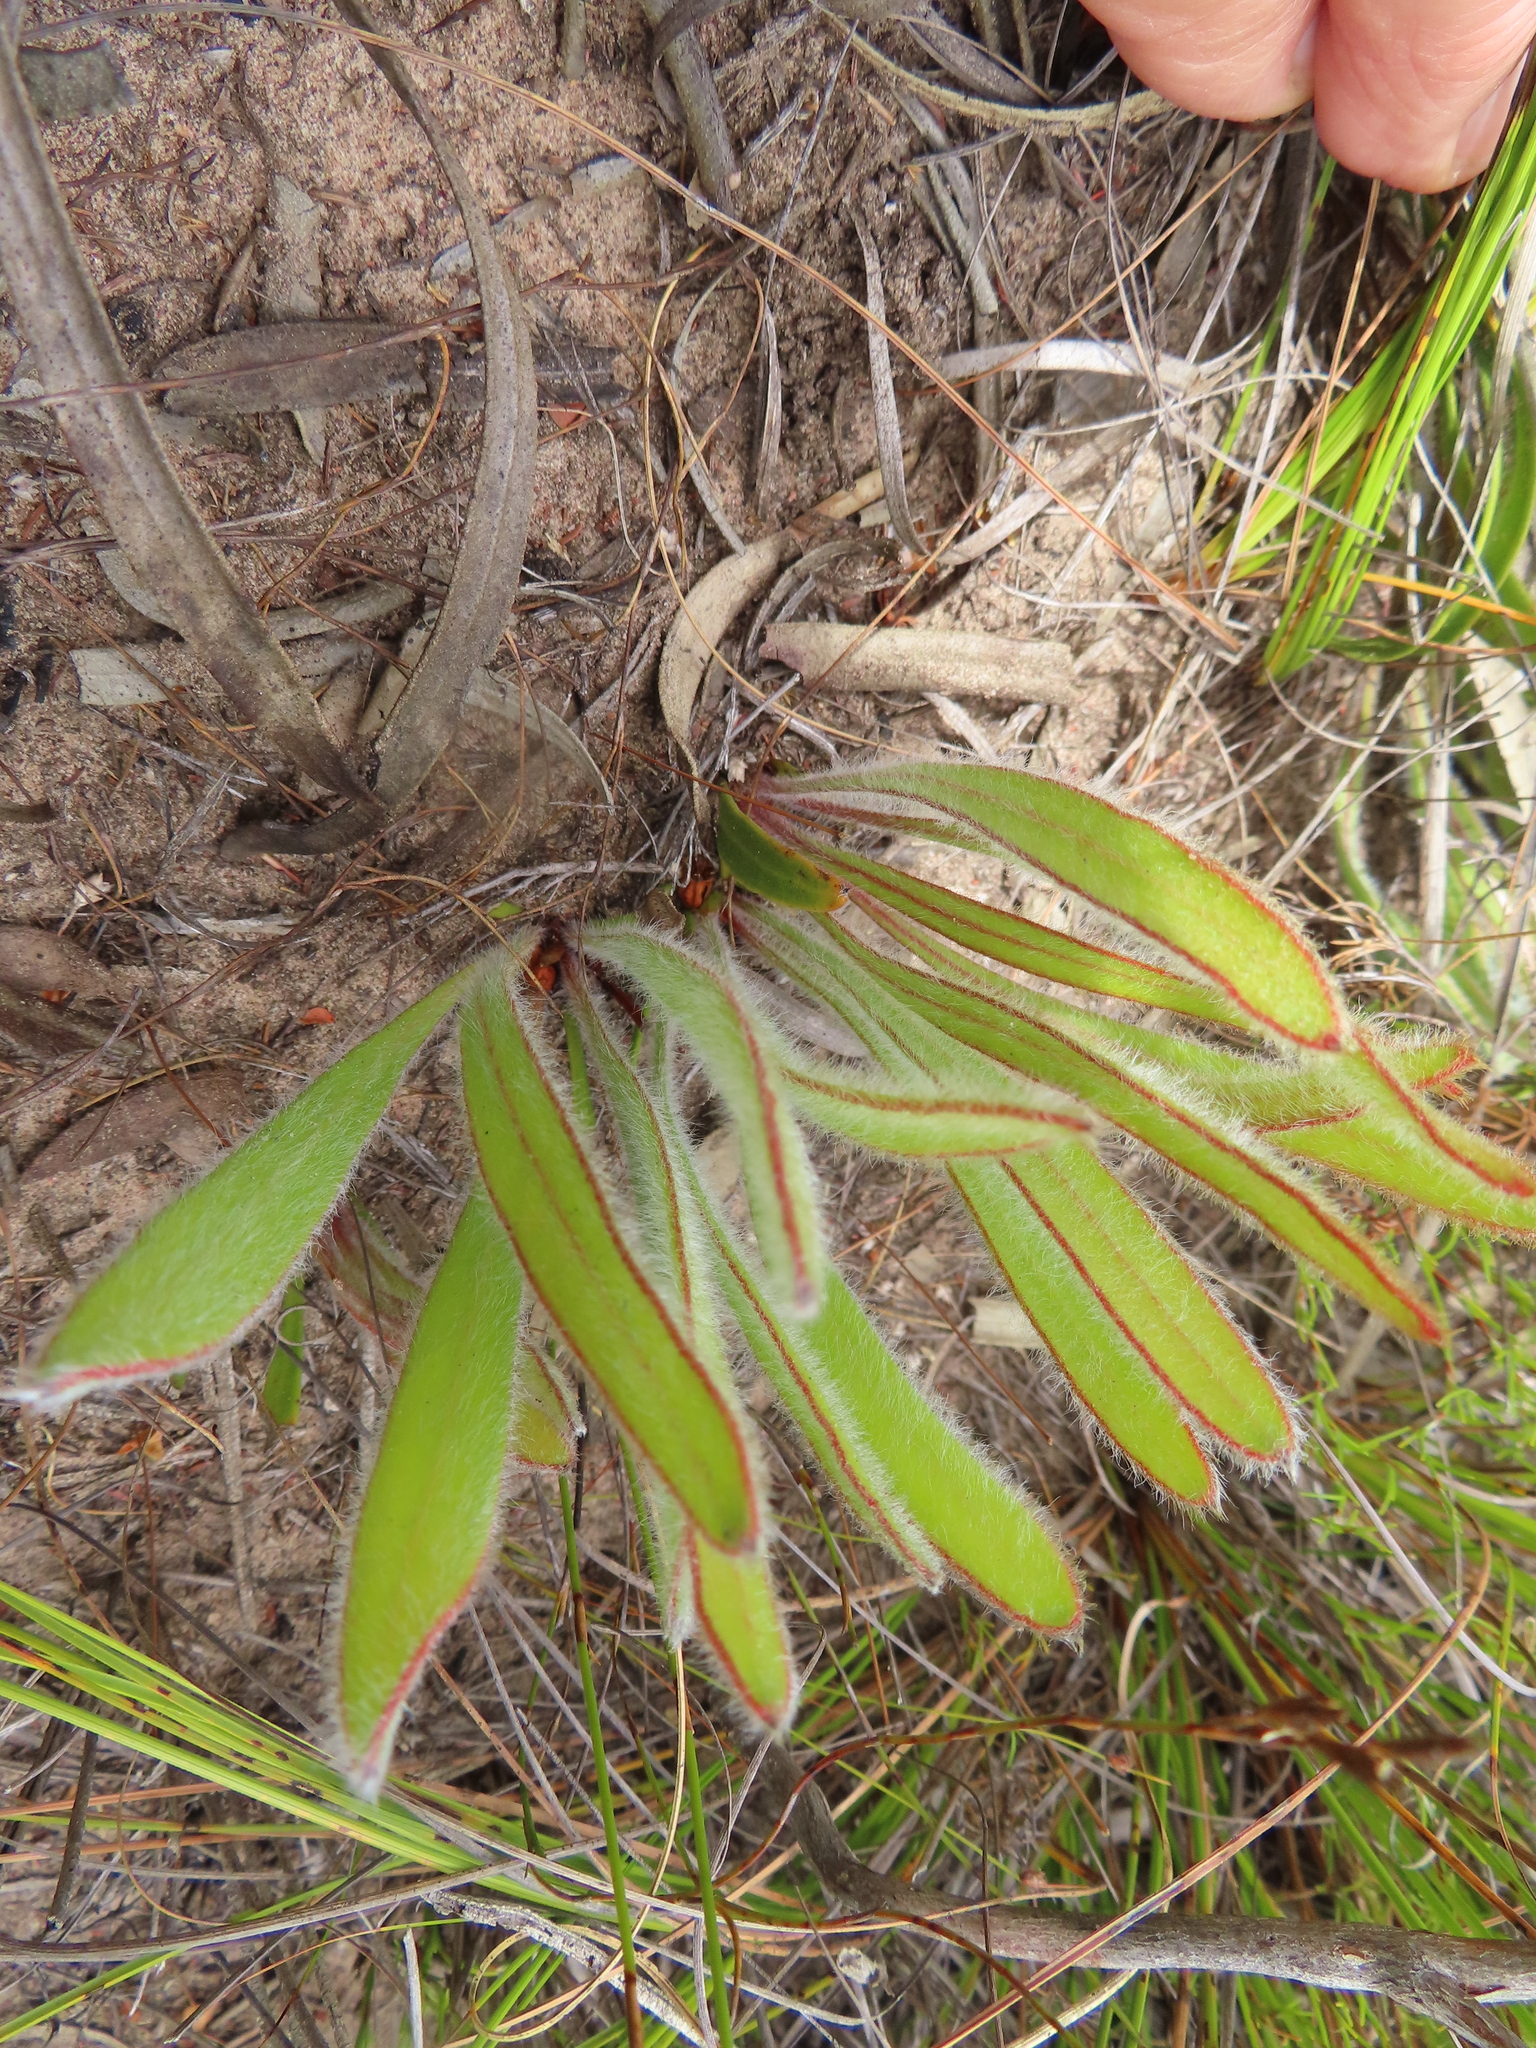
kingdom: Plantae
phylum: Tracheophyta
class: Magnoliopsida
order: Proteales
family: Proteaceae
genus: Protea
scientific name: Protea aspera
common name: Rough-leaf sugarbush
